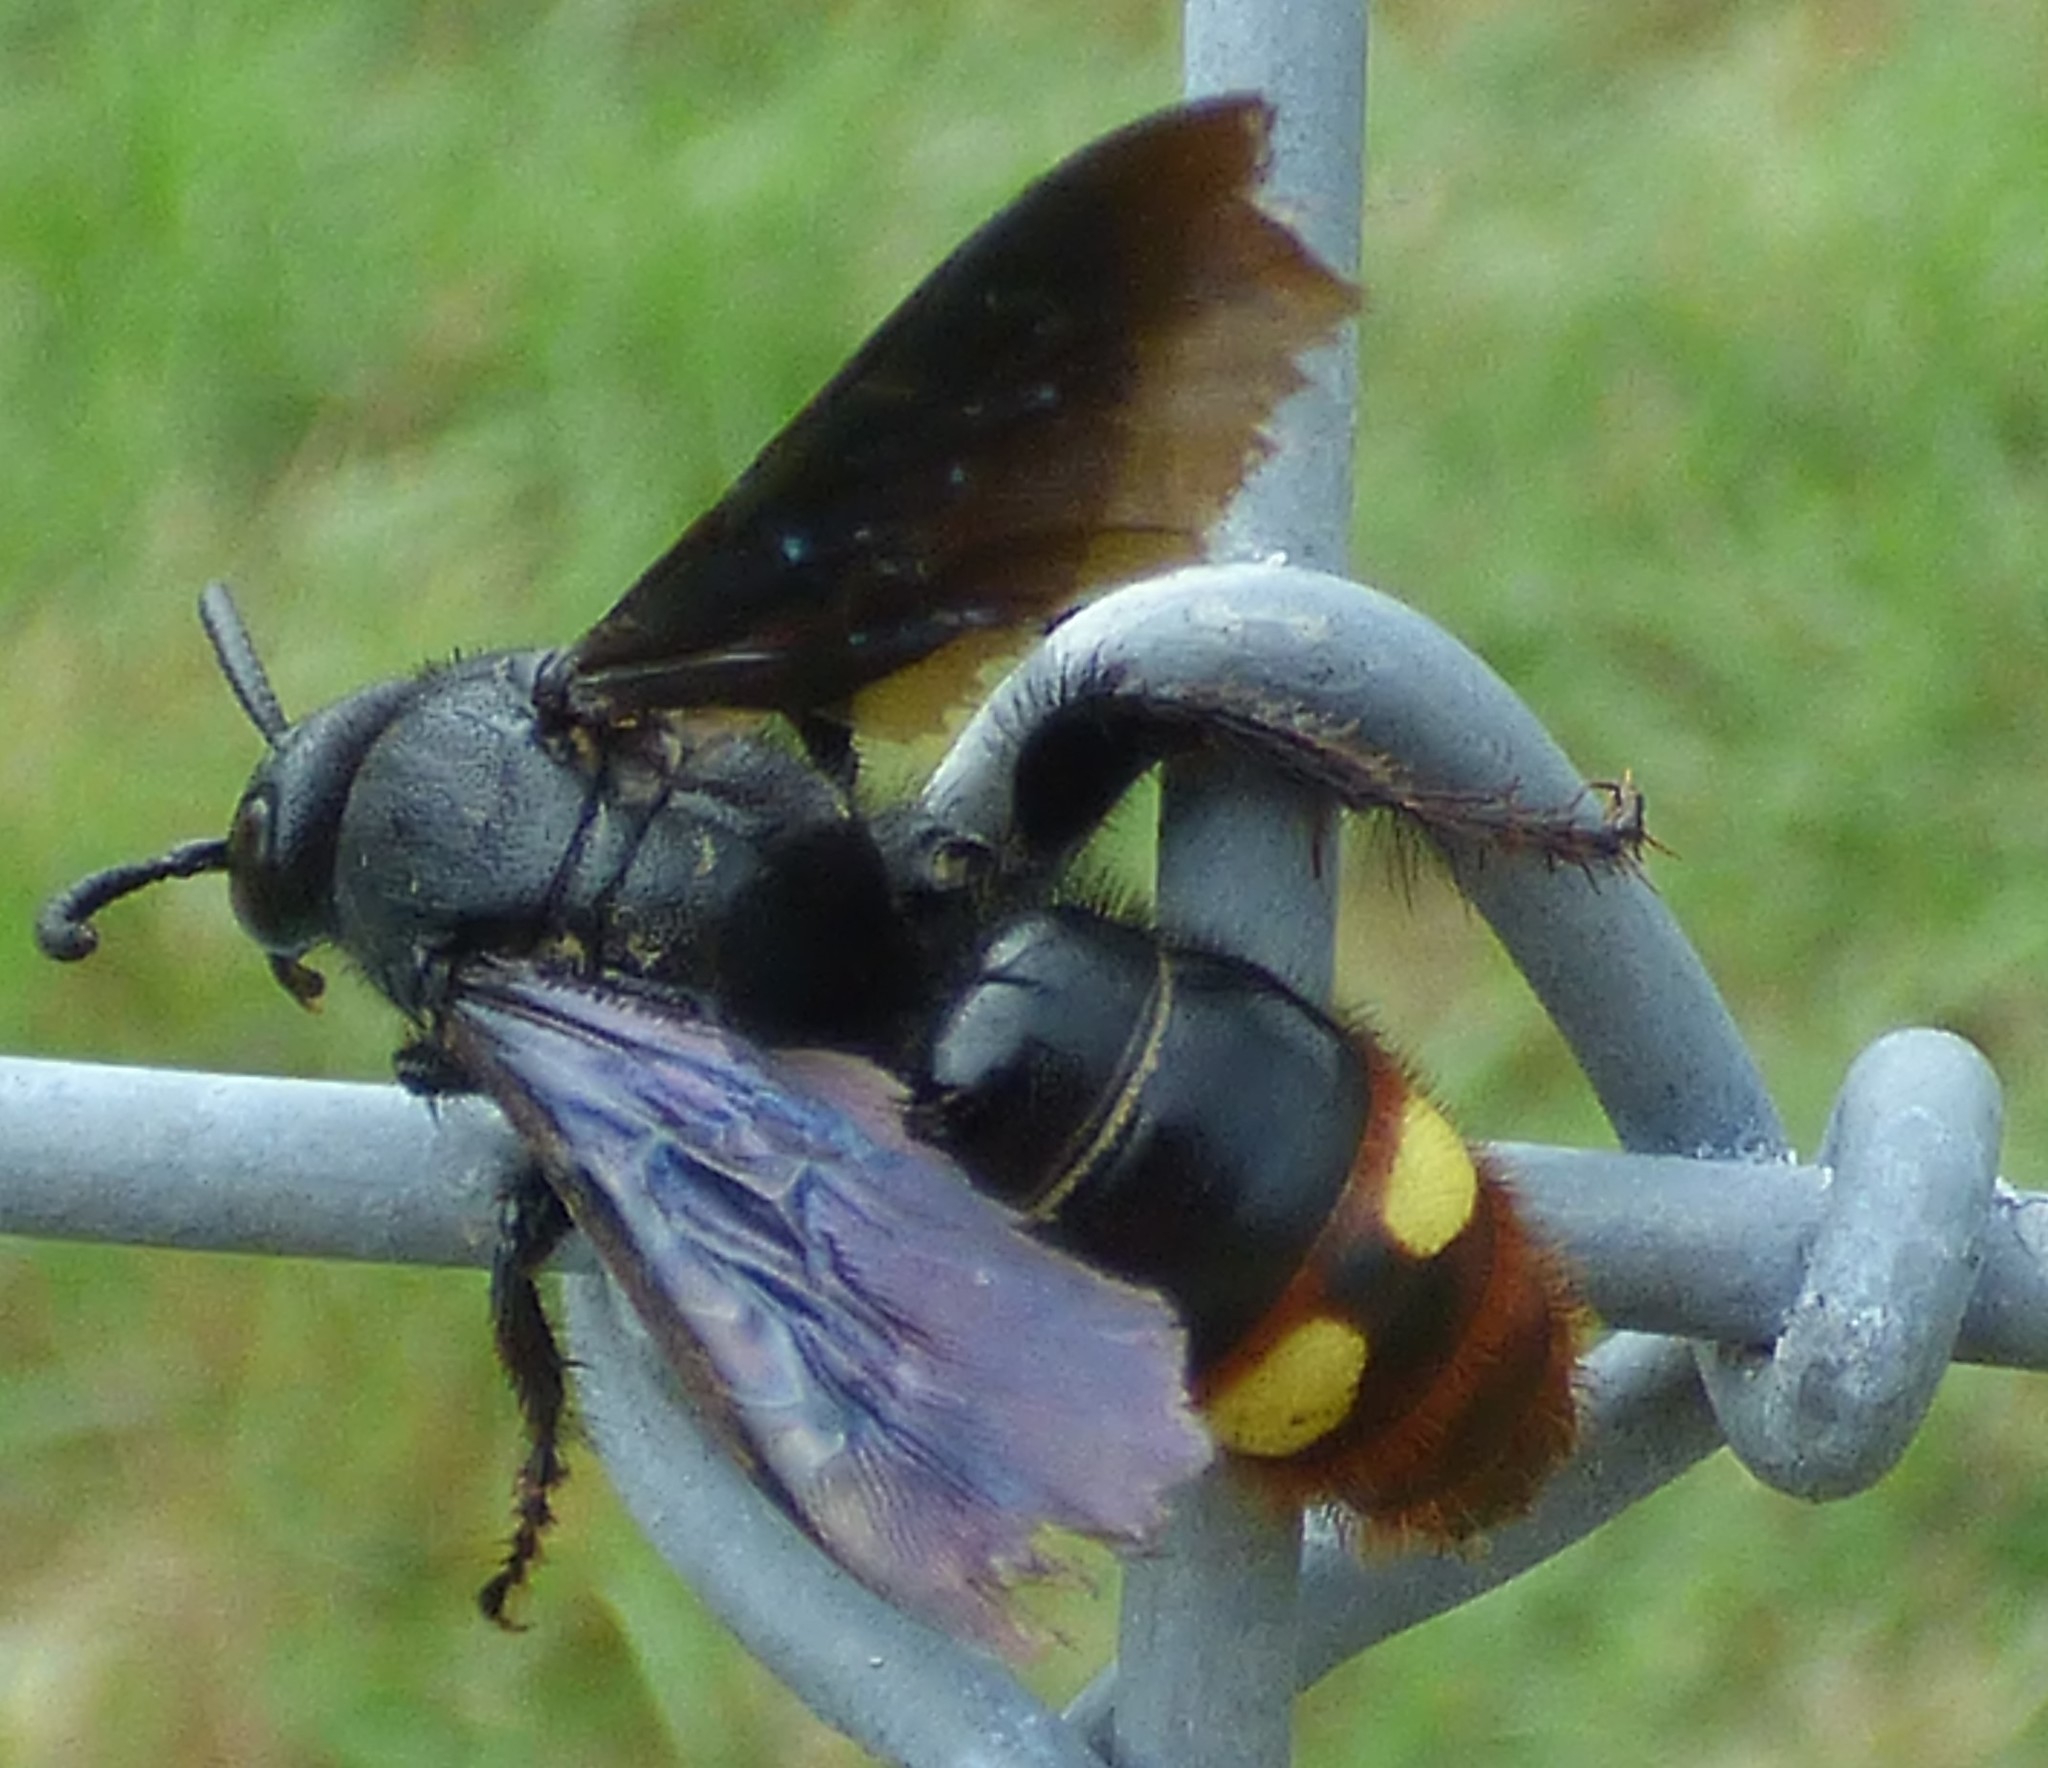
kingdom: Animalia
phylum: Arthropoda
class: Insecta
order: Hymenoptera
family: Scoliidae
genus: Scolia
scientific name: Scolia dubia
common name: Blue-winged scoliid wasp
